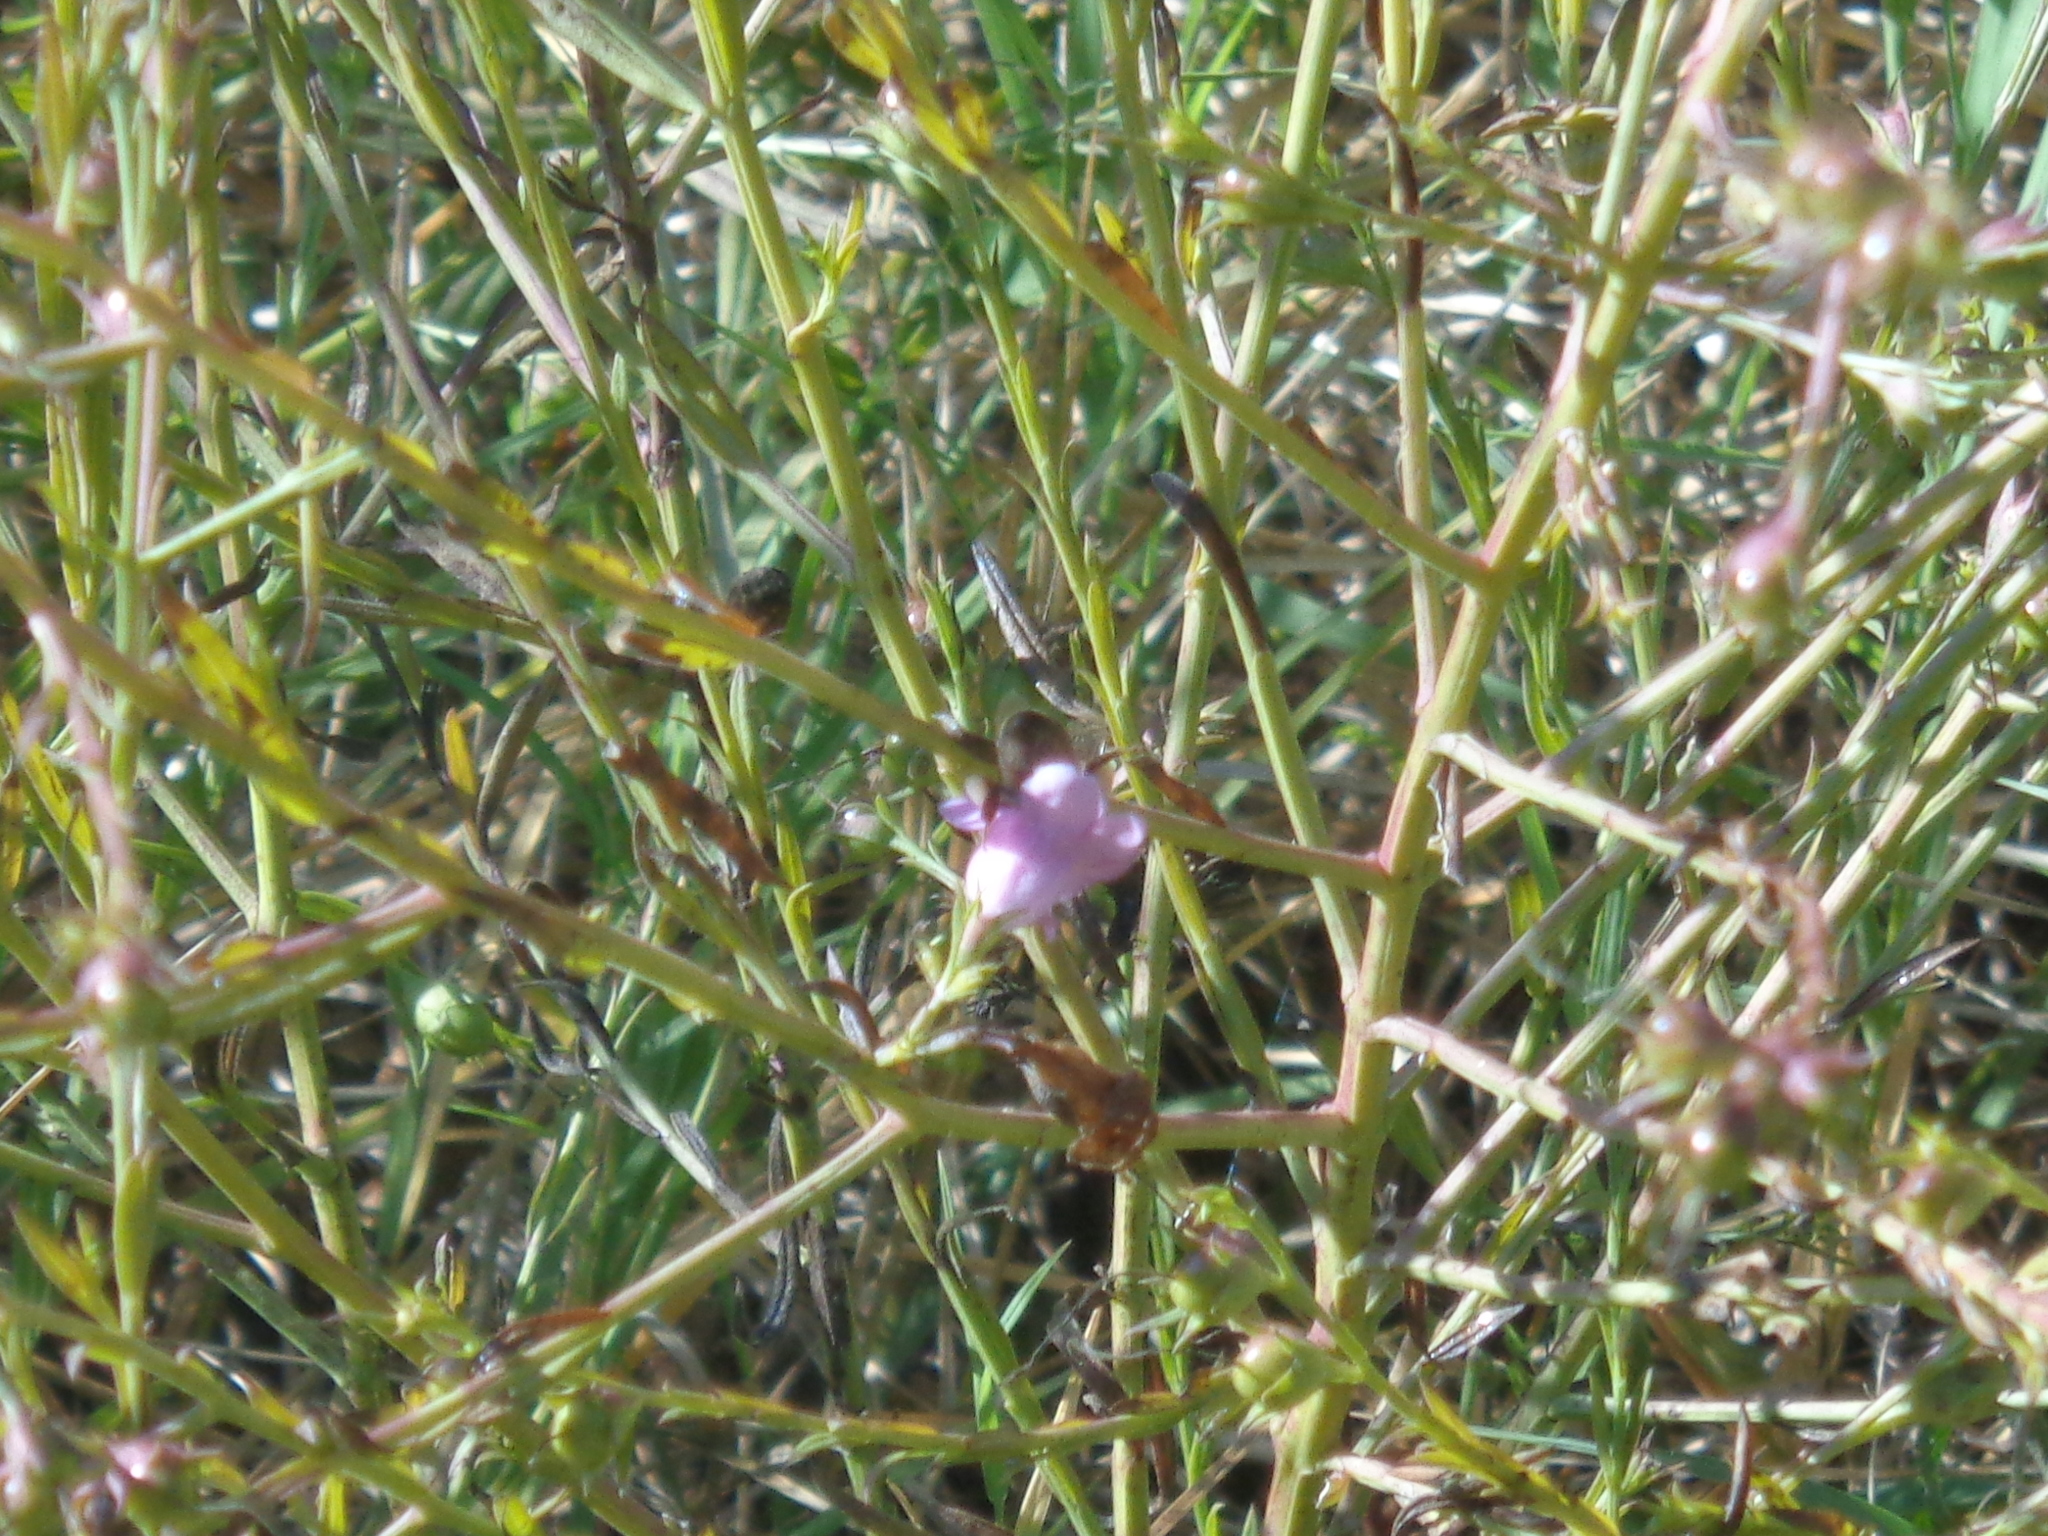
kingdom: Plantae
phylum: Tracheophyta
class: Magnoliopsida
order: Lamiales
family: Orobanchaceae
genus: Agalinis
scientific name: Agalinis heterophylla
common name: Prairie agalinis
